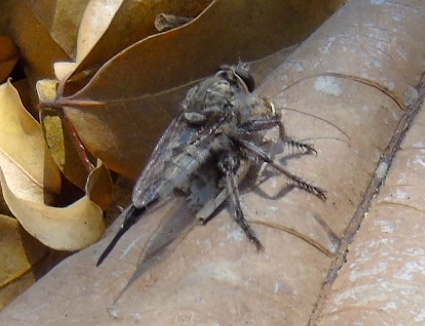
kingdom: Animalia
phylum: Arthropoda
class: Insecta
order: Diptera
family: Asilidae
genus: Efferia
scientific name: Efferia
